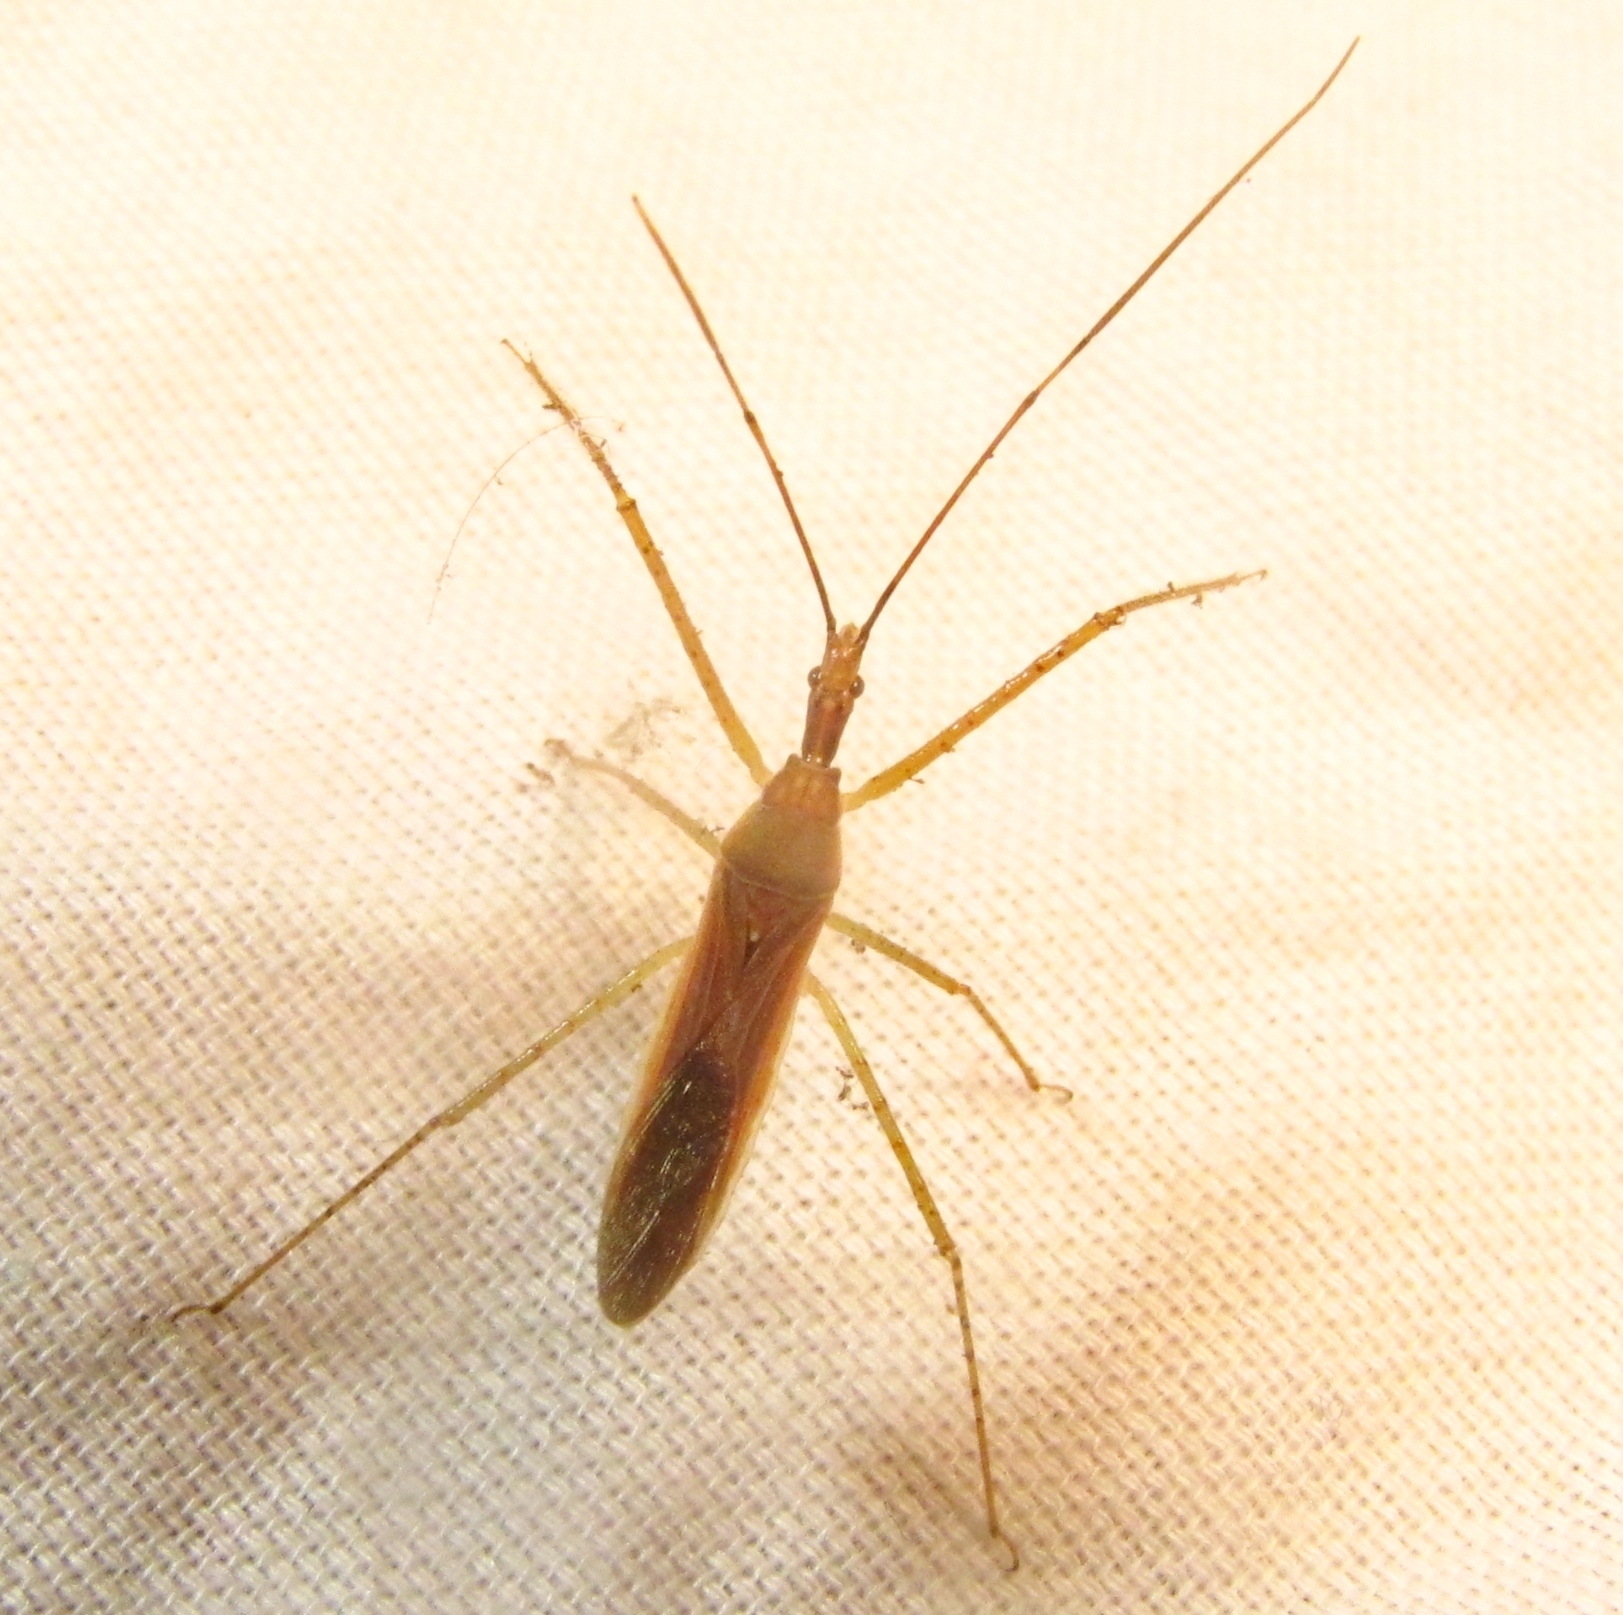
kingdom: Animalia
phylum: Arthropoda
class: Insecta
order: Hemiptera
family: Reduviidae
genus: Zelus
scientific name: Zelus cervicalis
